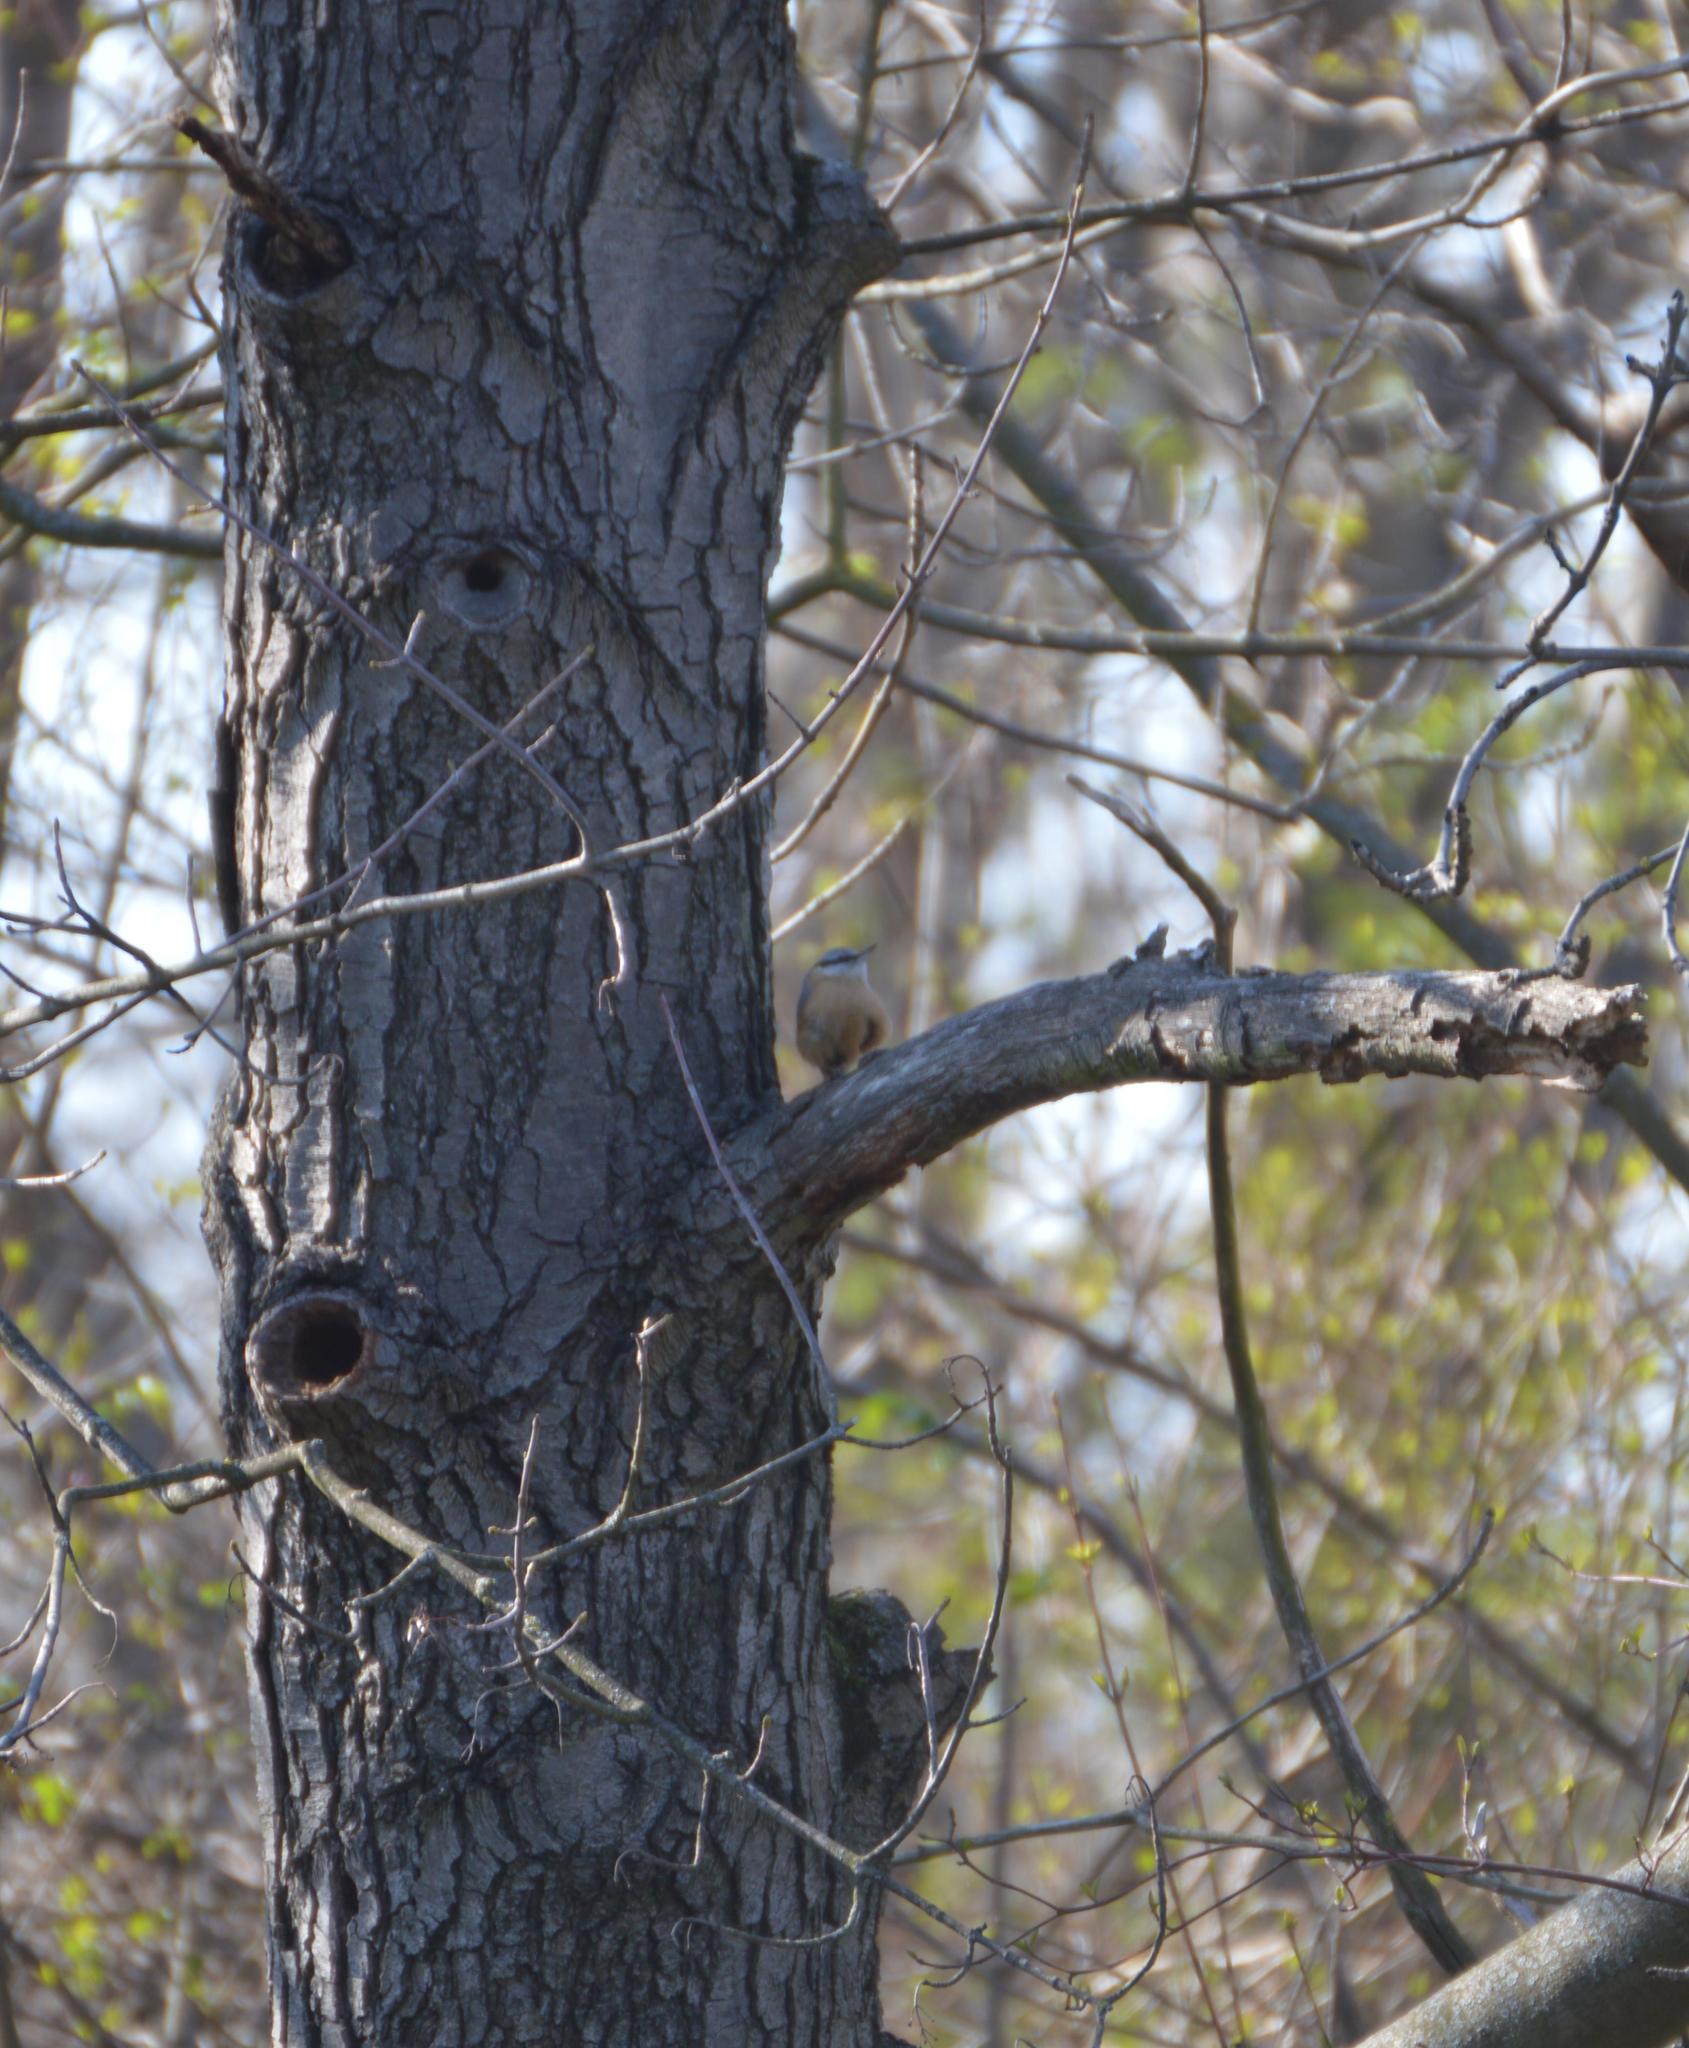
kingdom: Animalia
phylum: Chordata
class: Aves
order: Passeriformes
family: Sittidae
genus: Sitta
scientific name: Sitta europaea
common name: Eurasian nuthatch
